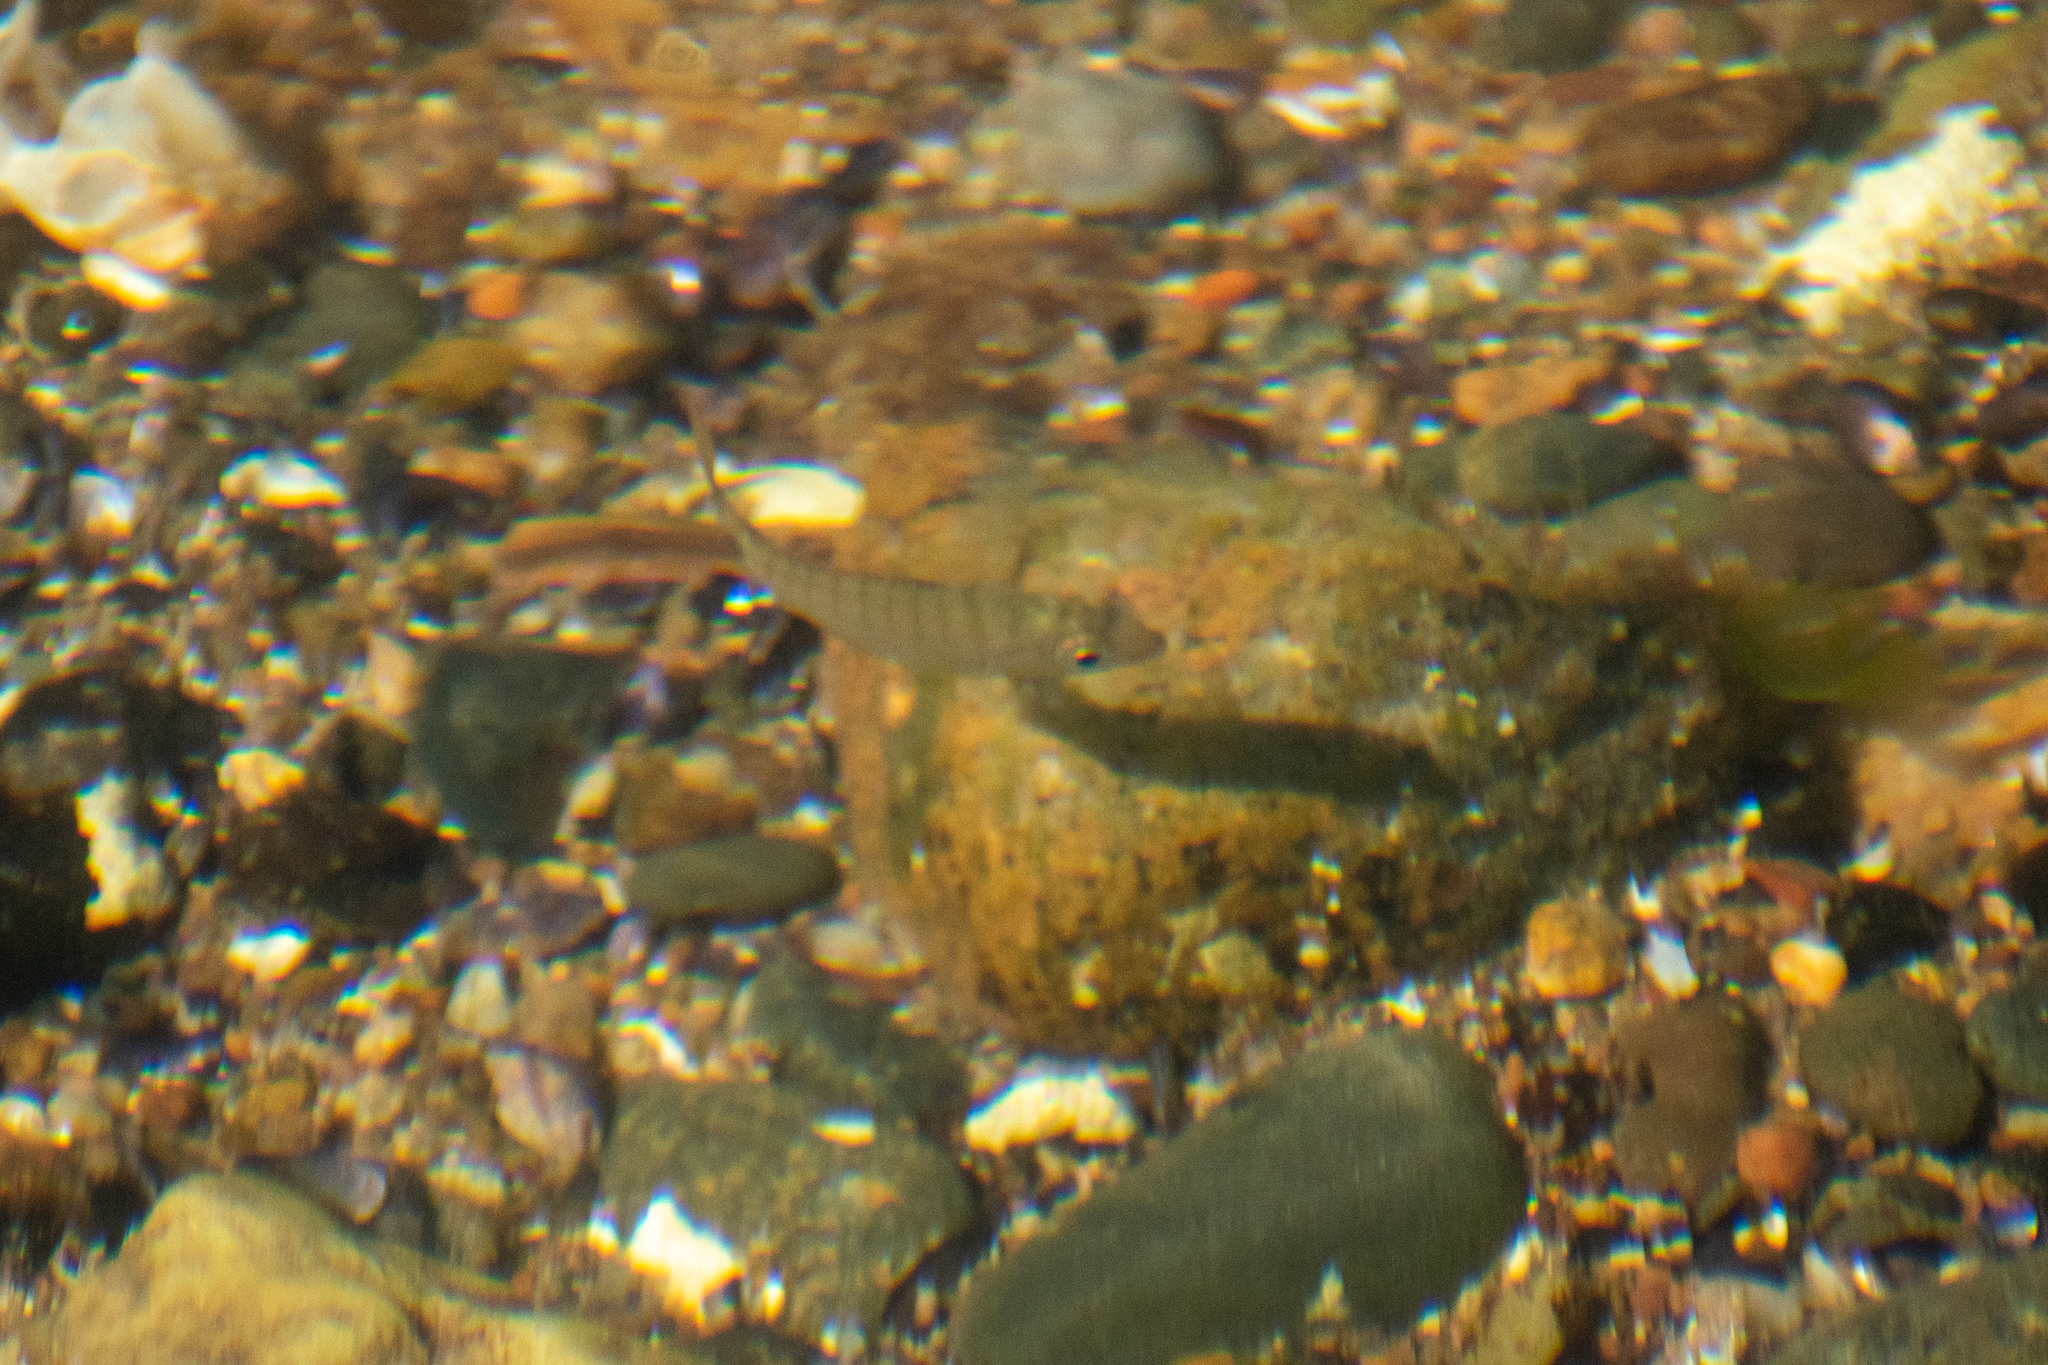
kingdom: Animalia
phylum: Chordata
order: Perciformes
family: Sparidae
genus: Diplodus
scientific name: Diplodus argenteus
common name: South-american silver porgy
